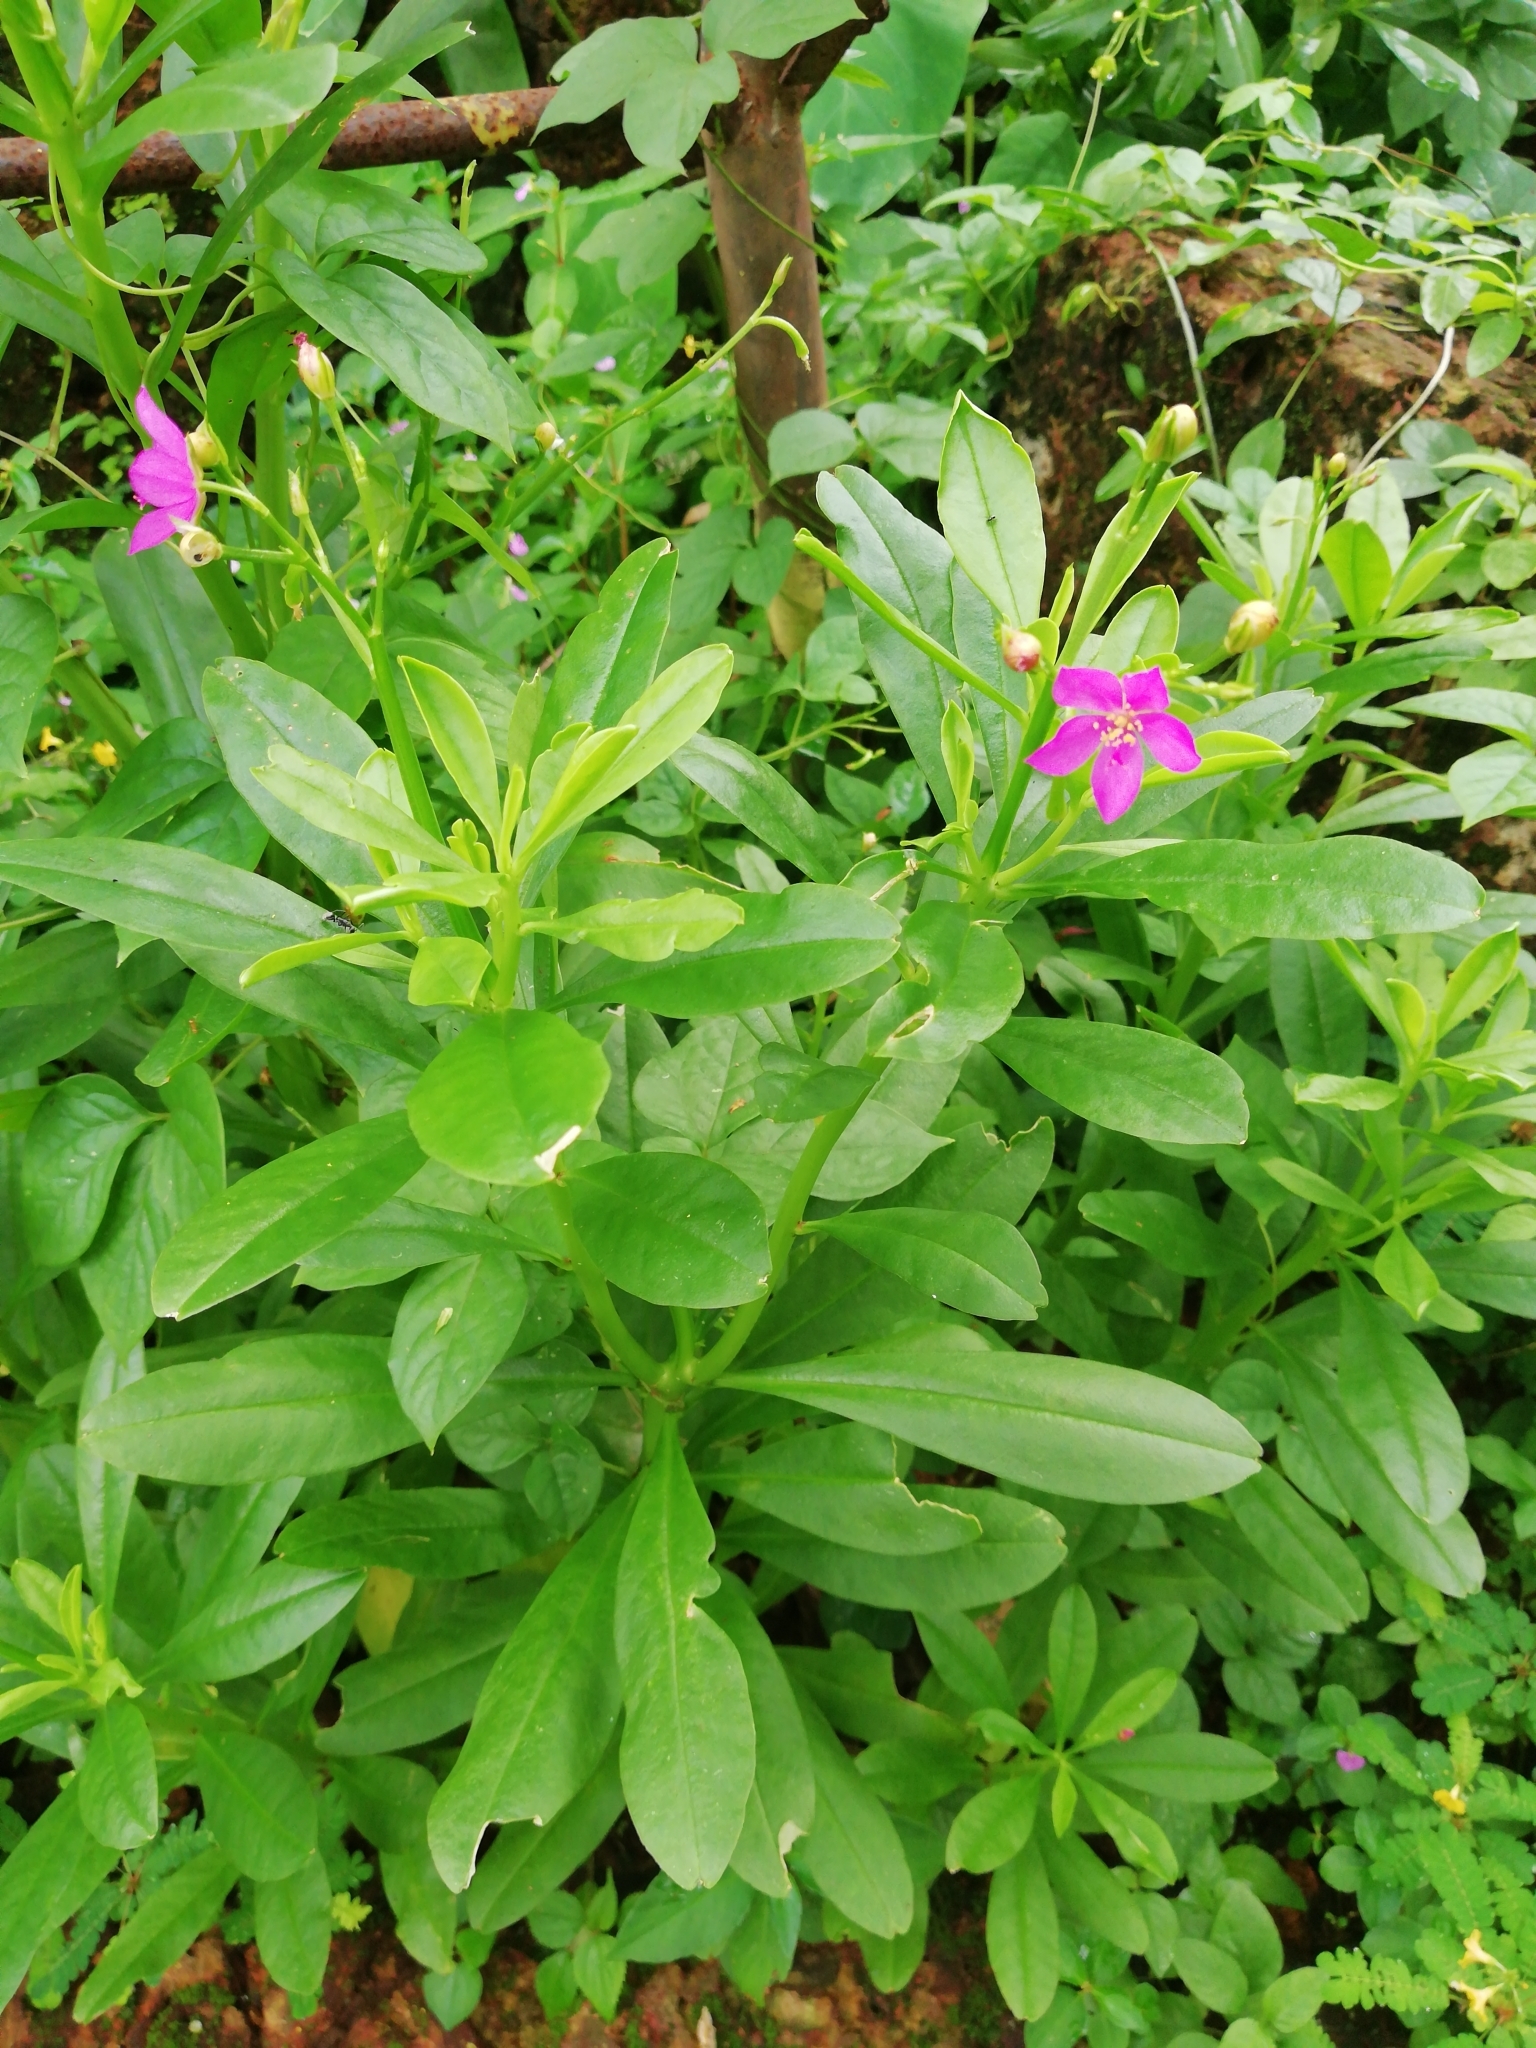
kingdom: Plantae
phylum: Tracheophyta
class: Magnoliopsida
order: Caryophyllales
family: Talinaceae
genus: Talinum
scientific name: Talinum fruticosum
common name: Verdolaga-francesa
